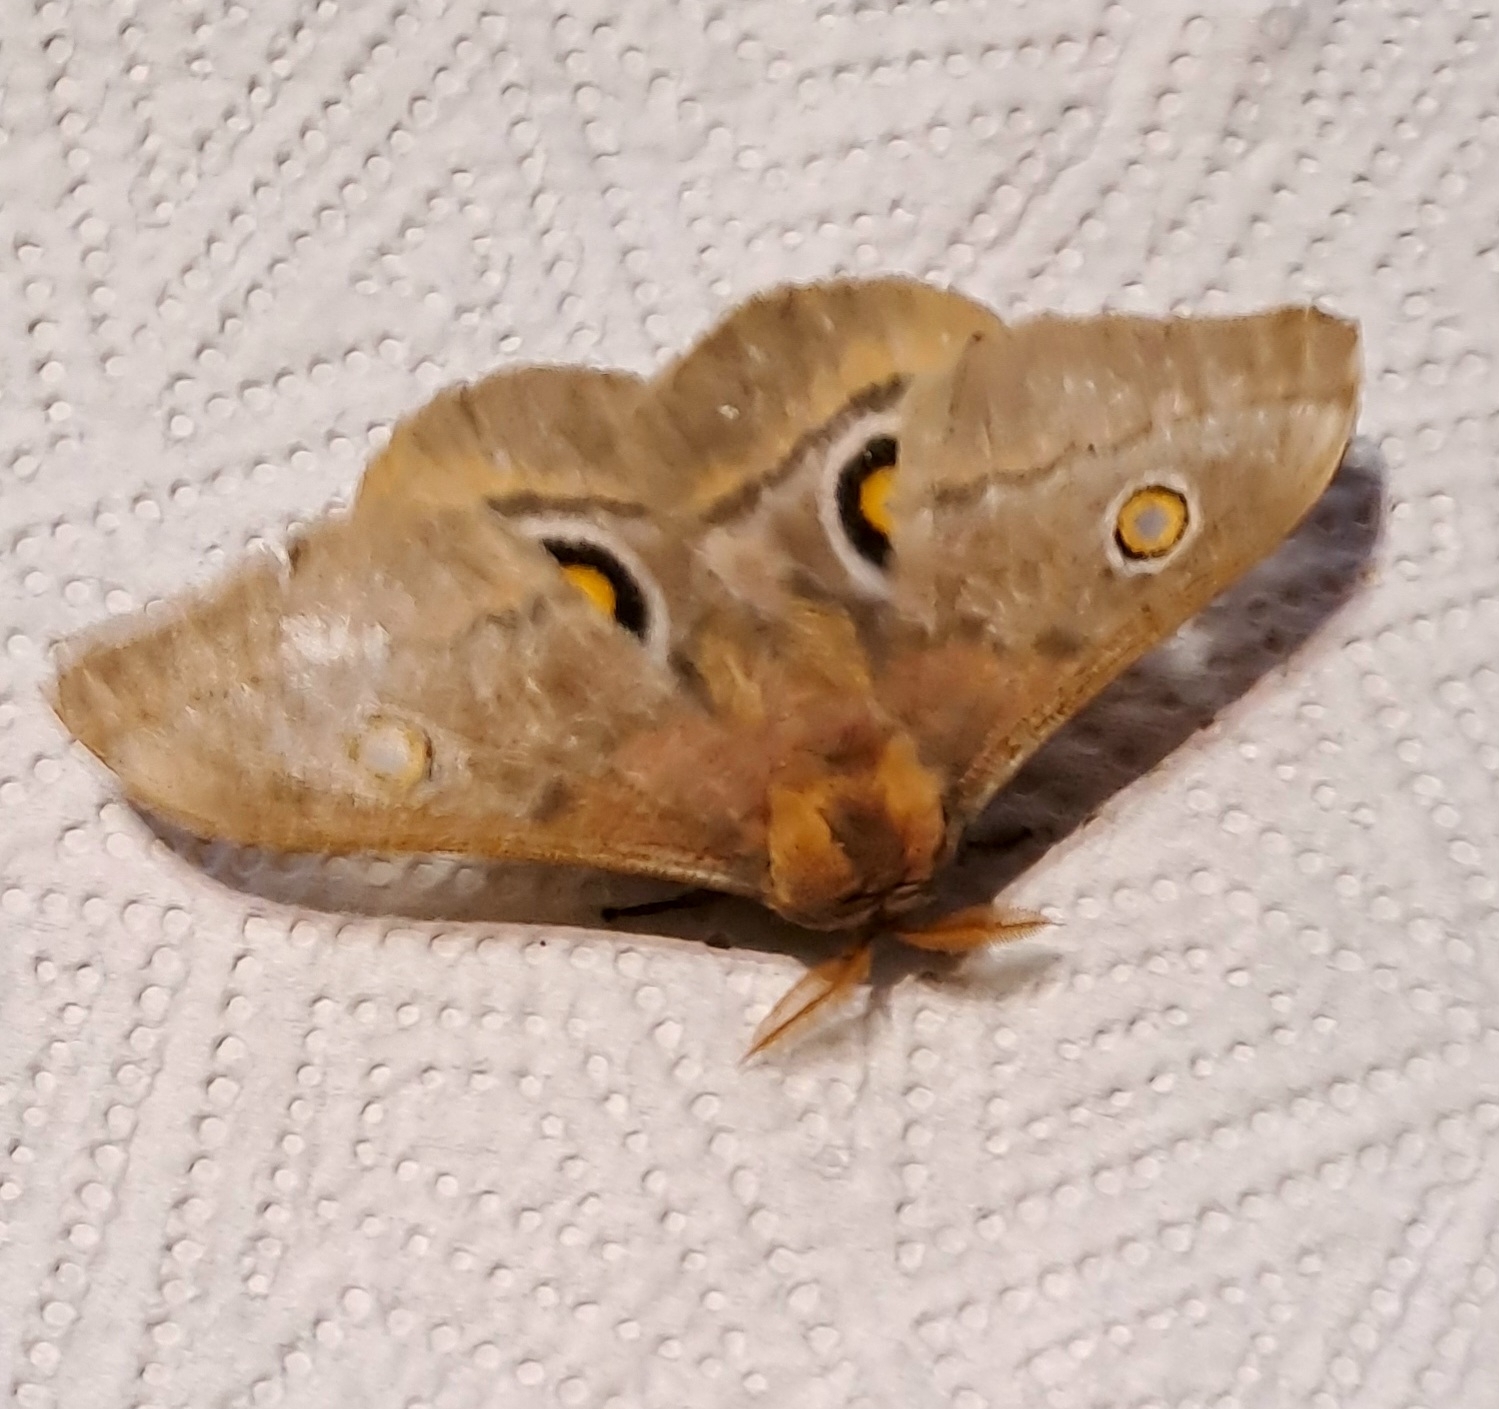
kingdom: Animalia
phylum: Arthropoda
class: Insecta
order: Lepidoptera
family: Saturniidae
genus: Nudaurelia
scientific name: Nudaurelia cytherea
